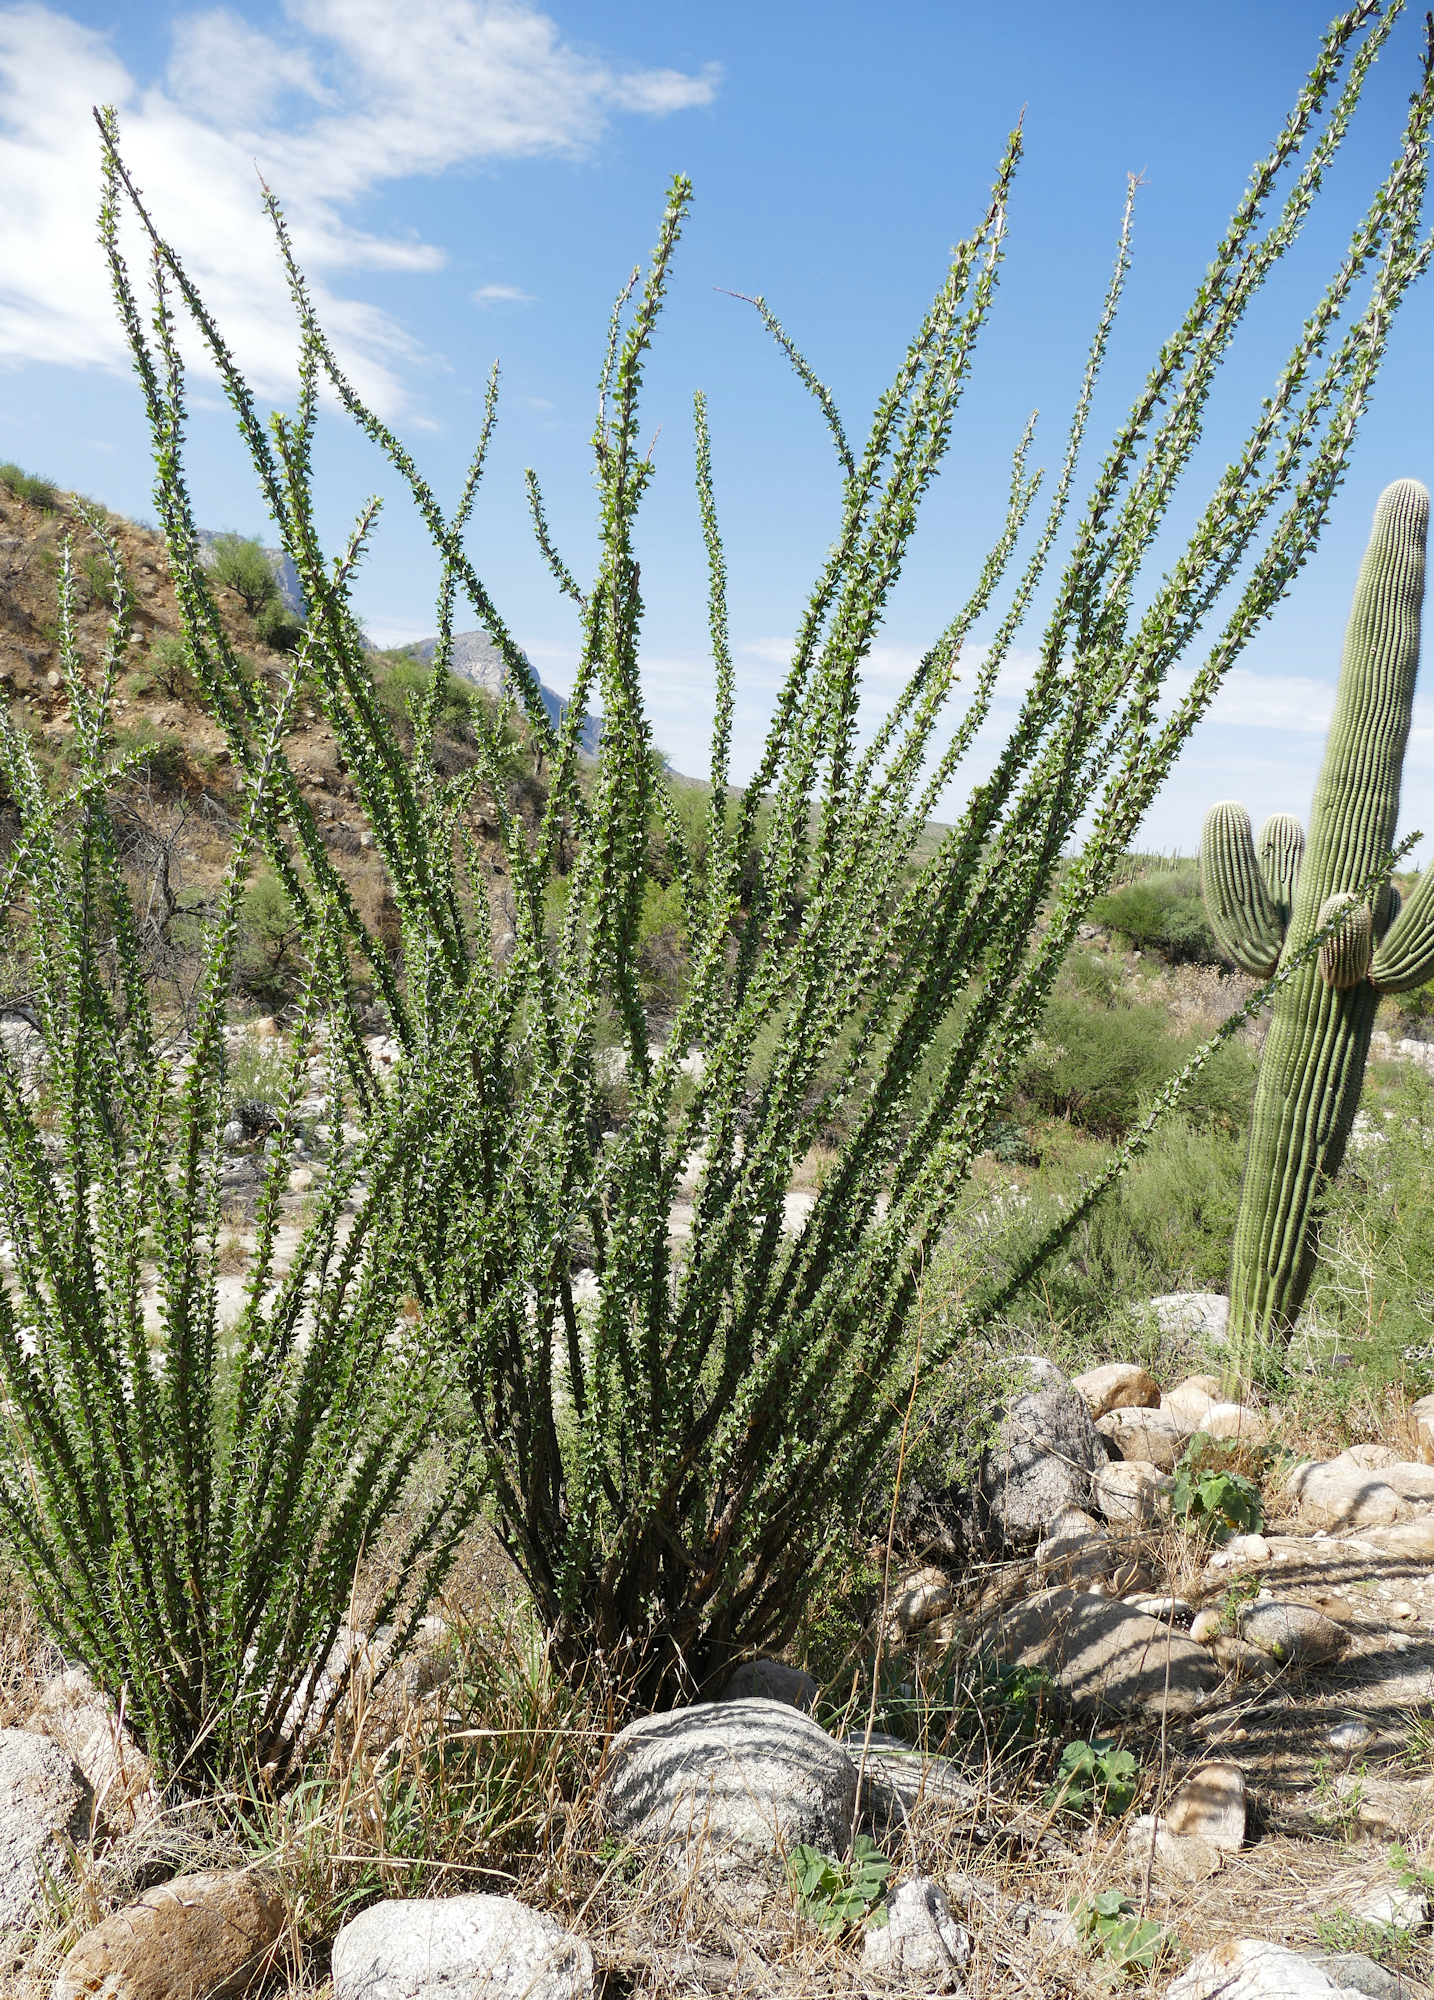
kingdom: Plantae
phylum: Tracheophyta
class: Magnoliopsida
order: Ericales
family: Fouquieriaceae
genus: Fouquieria
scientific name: Fouquieria splendens
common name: Vine-cactus
